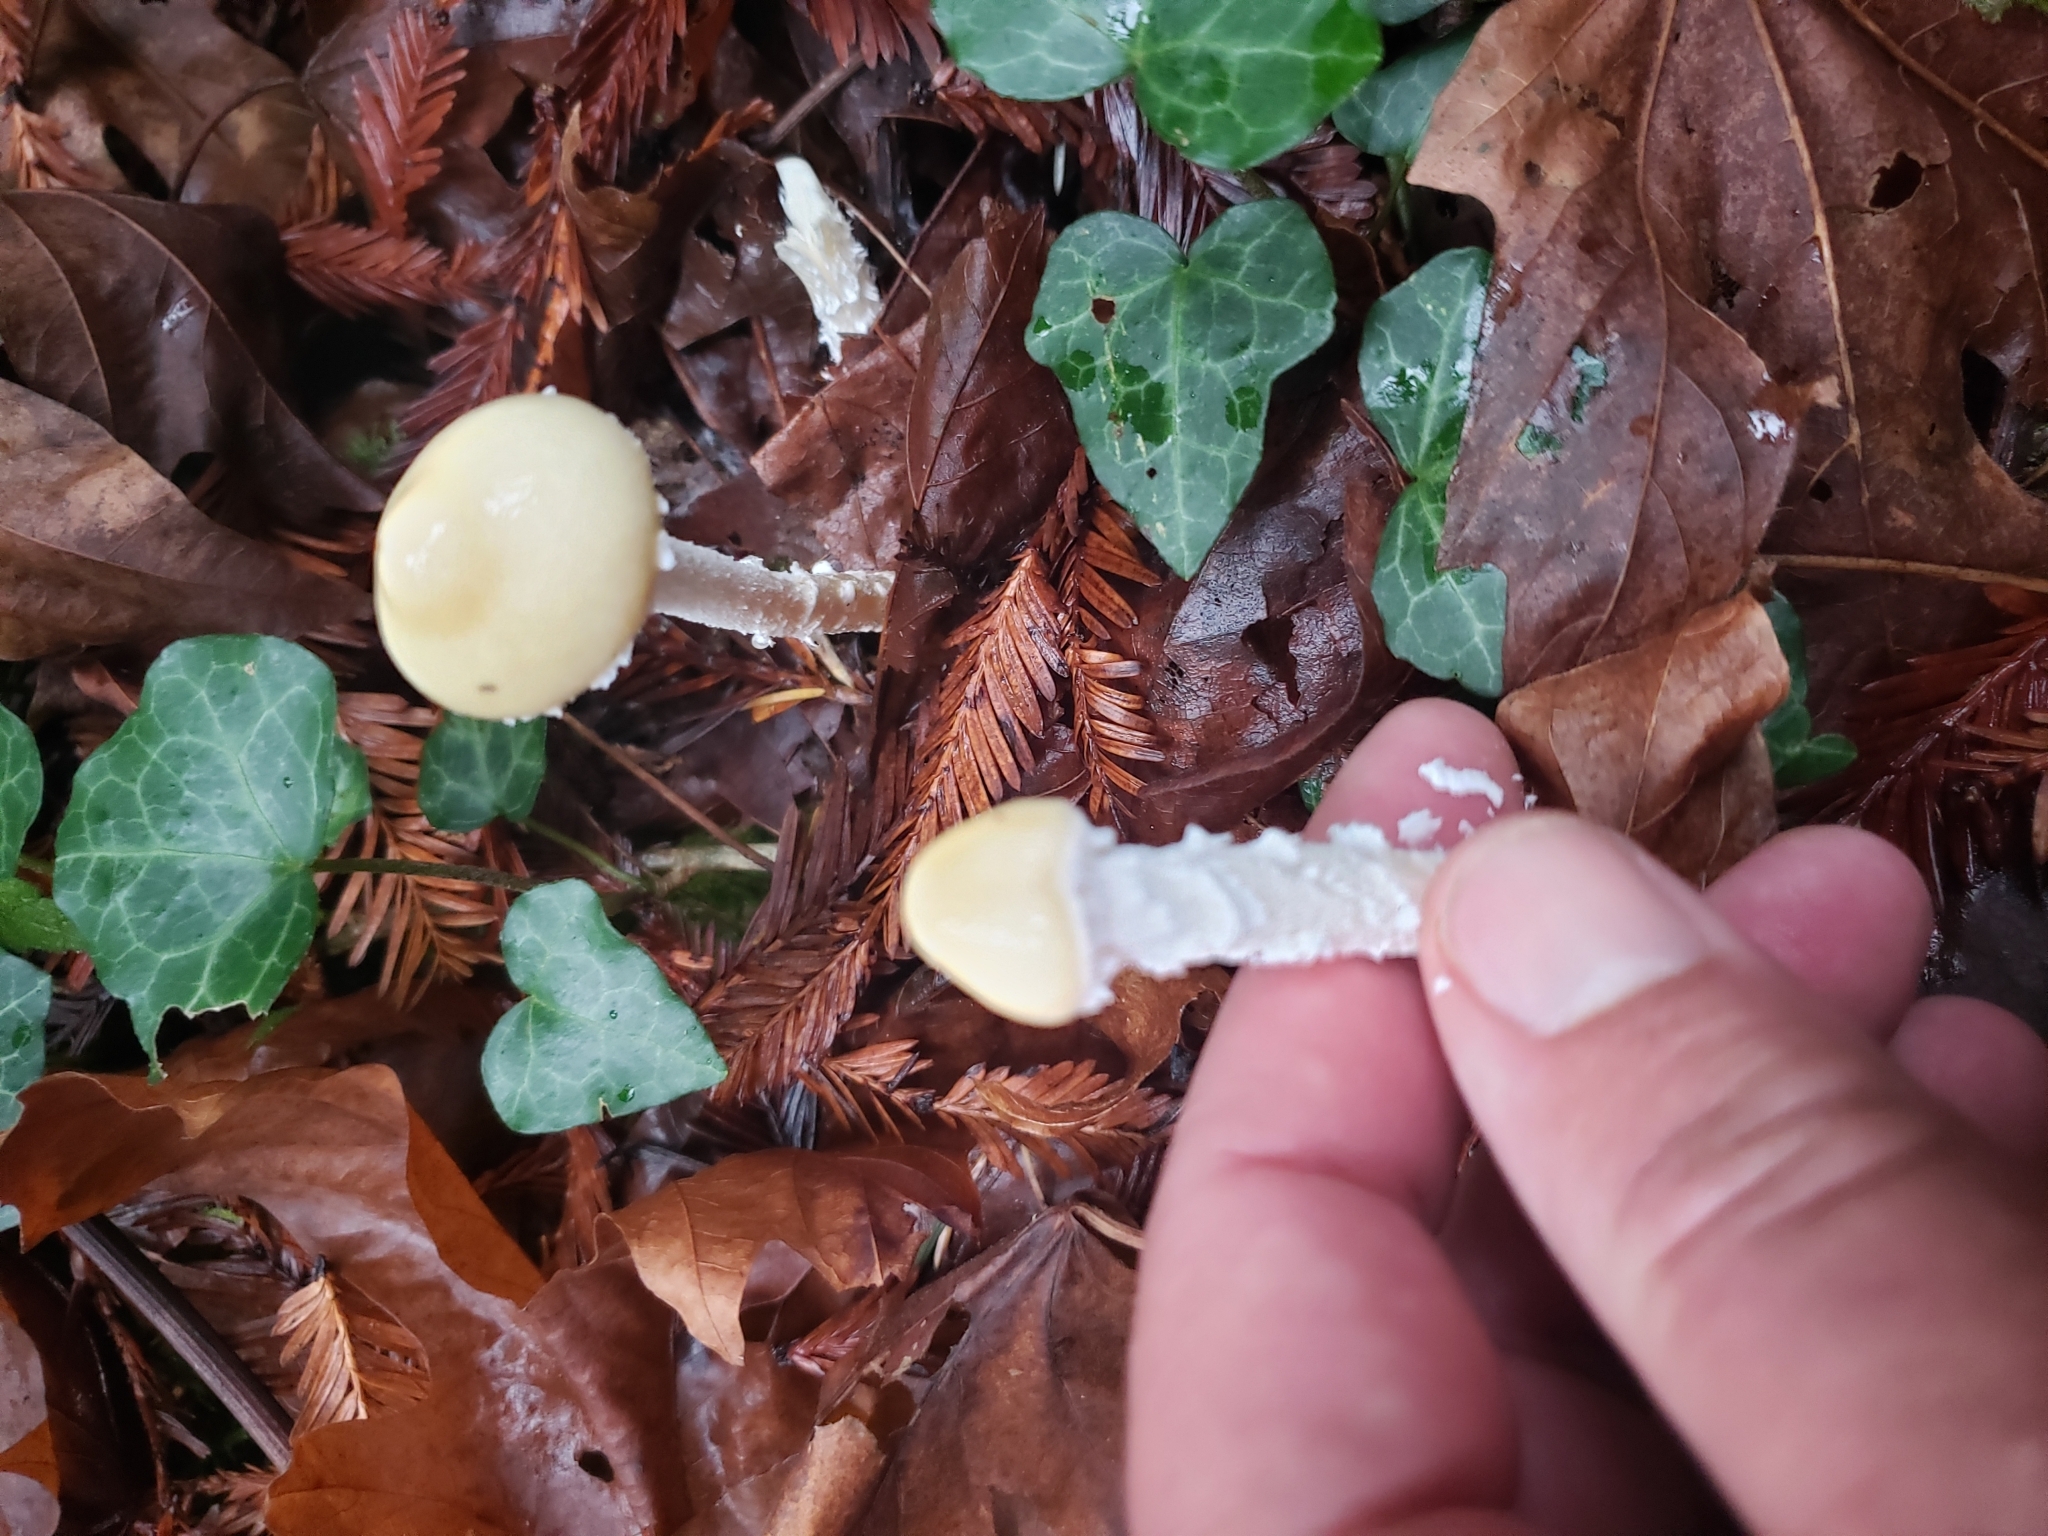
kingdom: Fungi
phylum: Basidiomycota
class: Agaricomycetes
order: Agaricales
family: Strophariaceae
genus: Stropharia
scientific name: Stropharia ambigua
